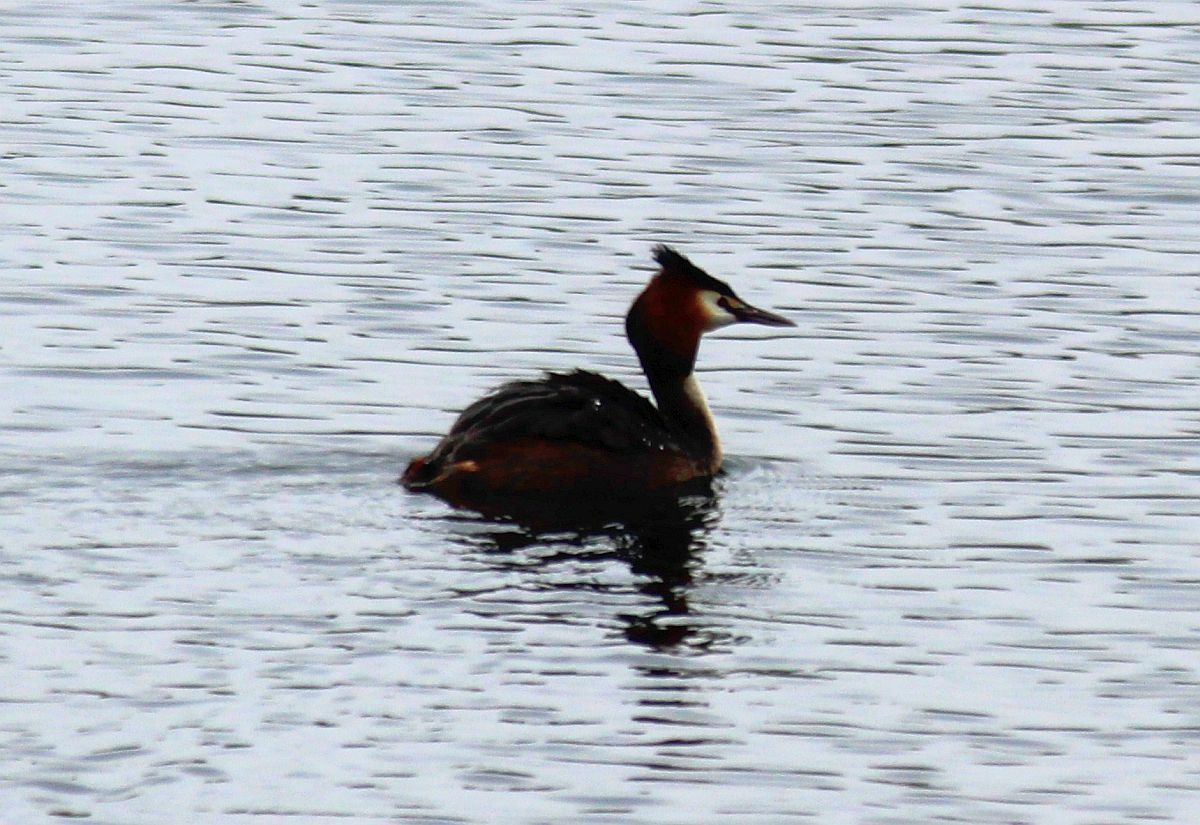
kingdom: Animalia
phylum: Chordata
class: Aves
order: Podicipediformes
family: Podicipedidae
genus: Podiceps
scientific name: Podiceps cristatus
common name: Great crested grebe
